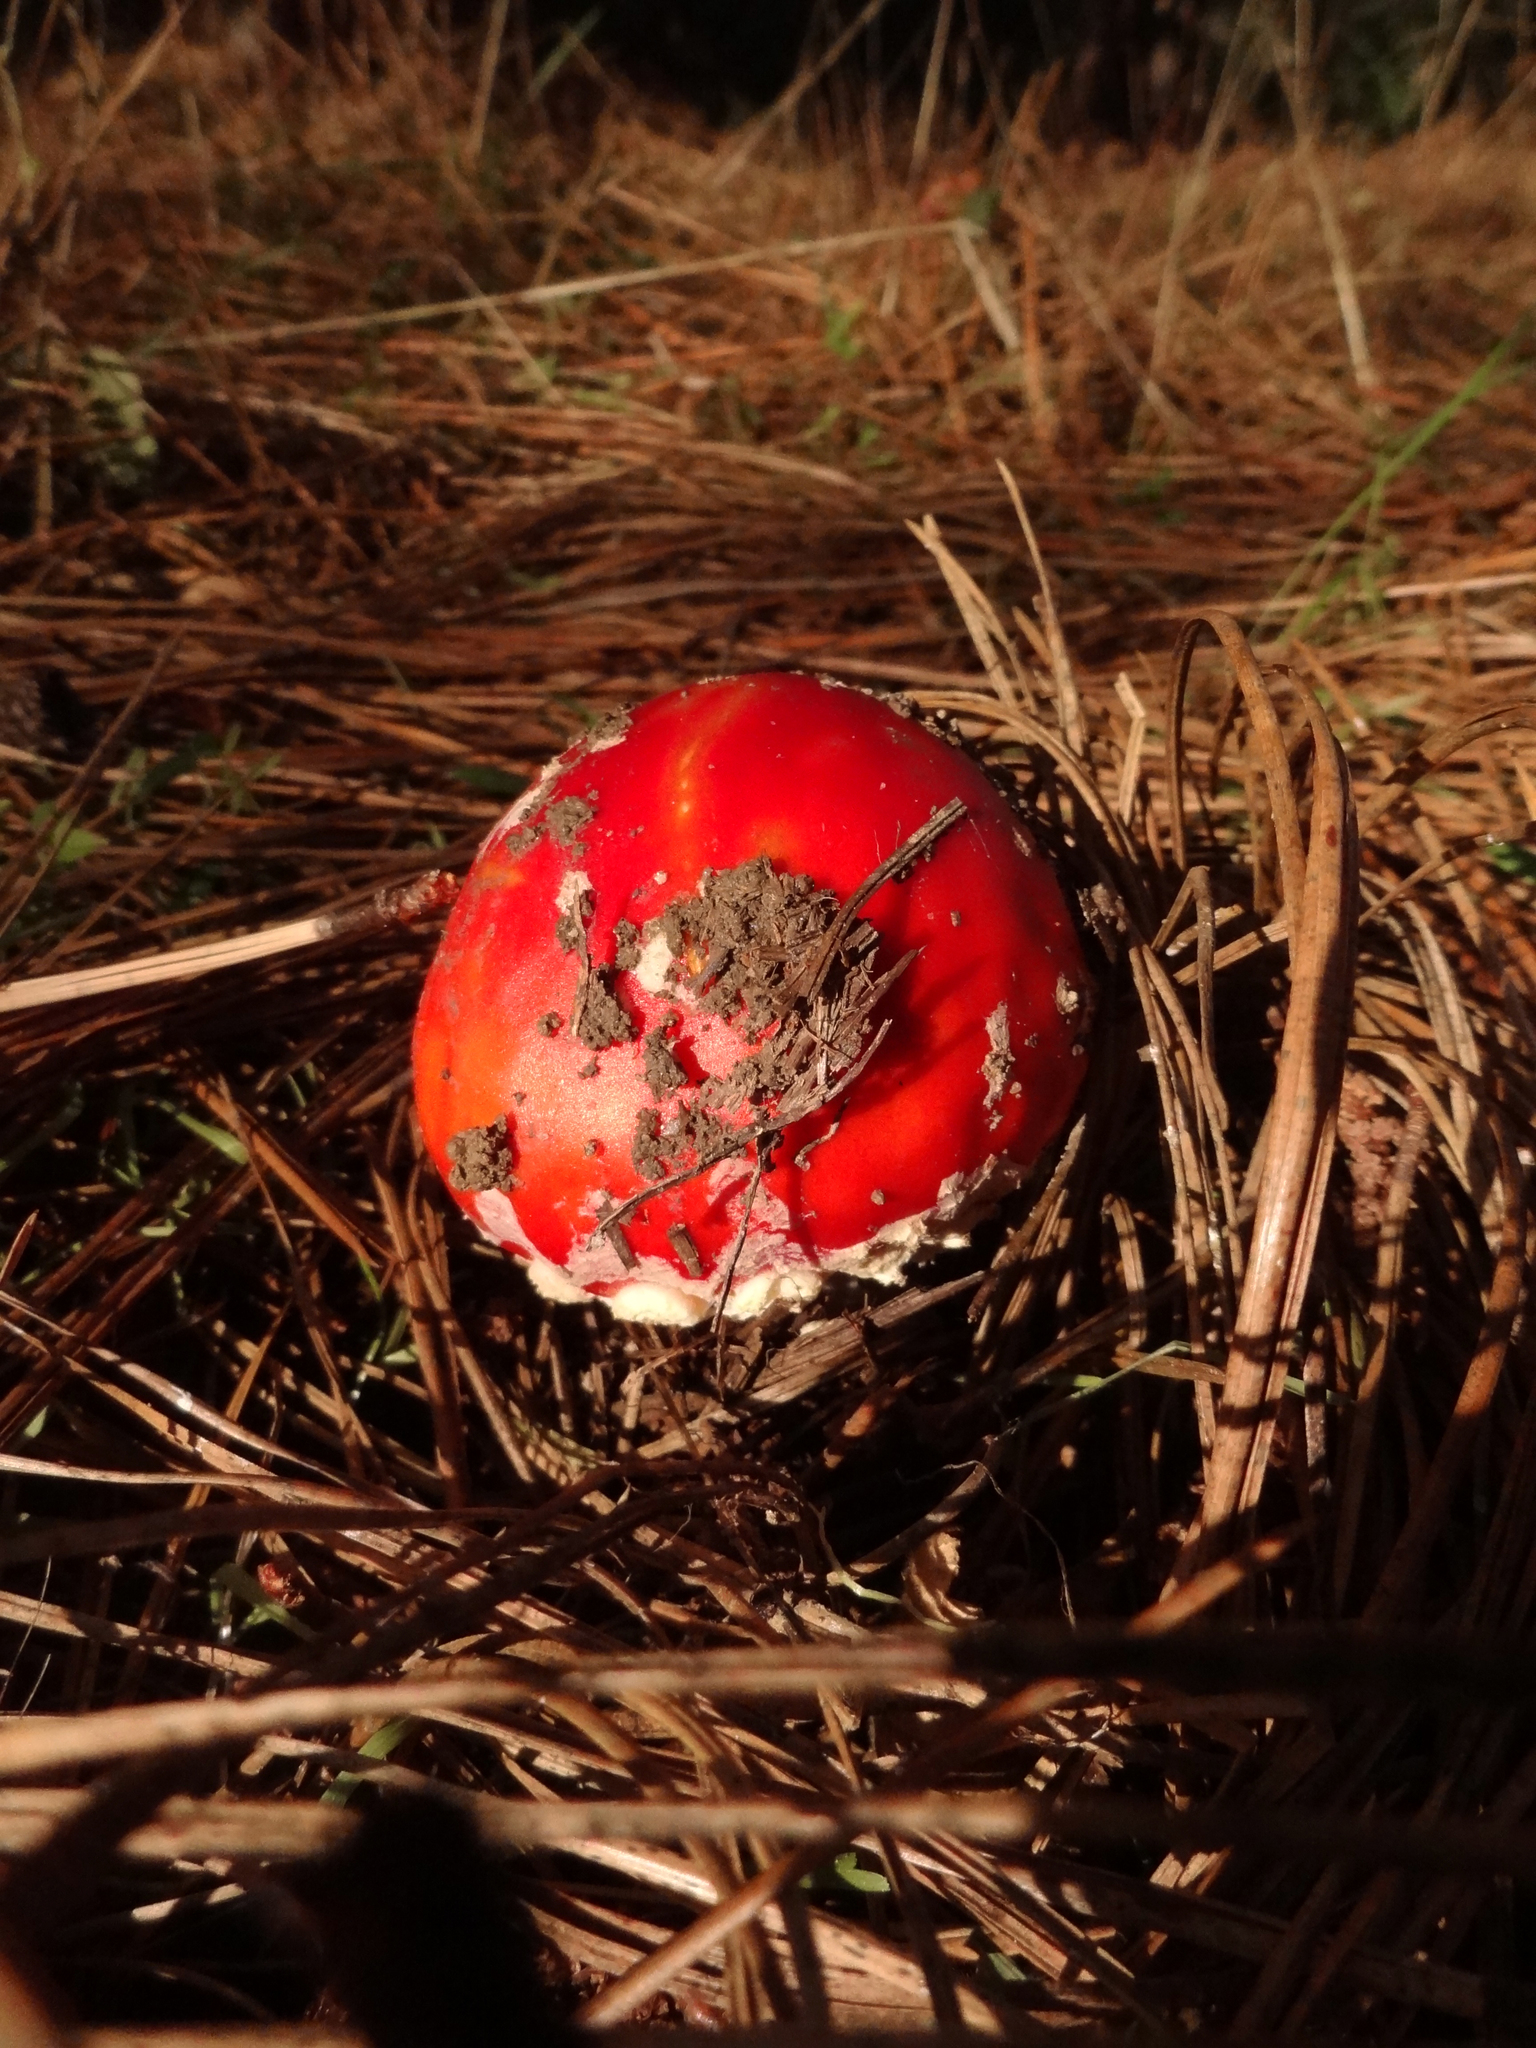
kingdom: Fungi
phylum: Basidiomycota
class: Agaricomycetes
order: Agaricales
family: Amanitaceae
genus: Amanita
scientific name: Amanita muscaria
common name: Fly agaric
